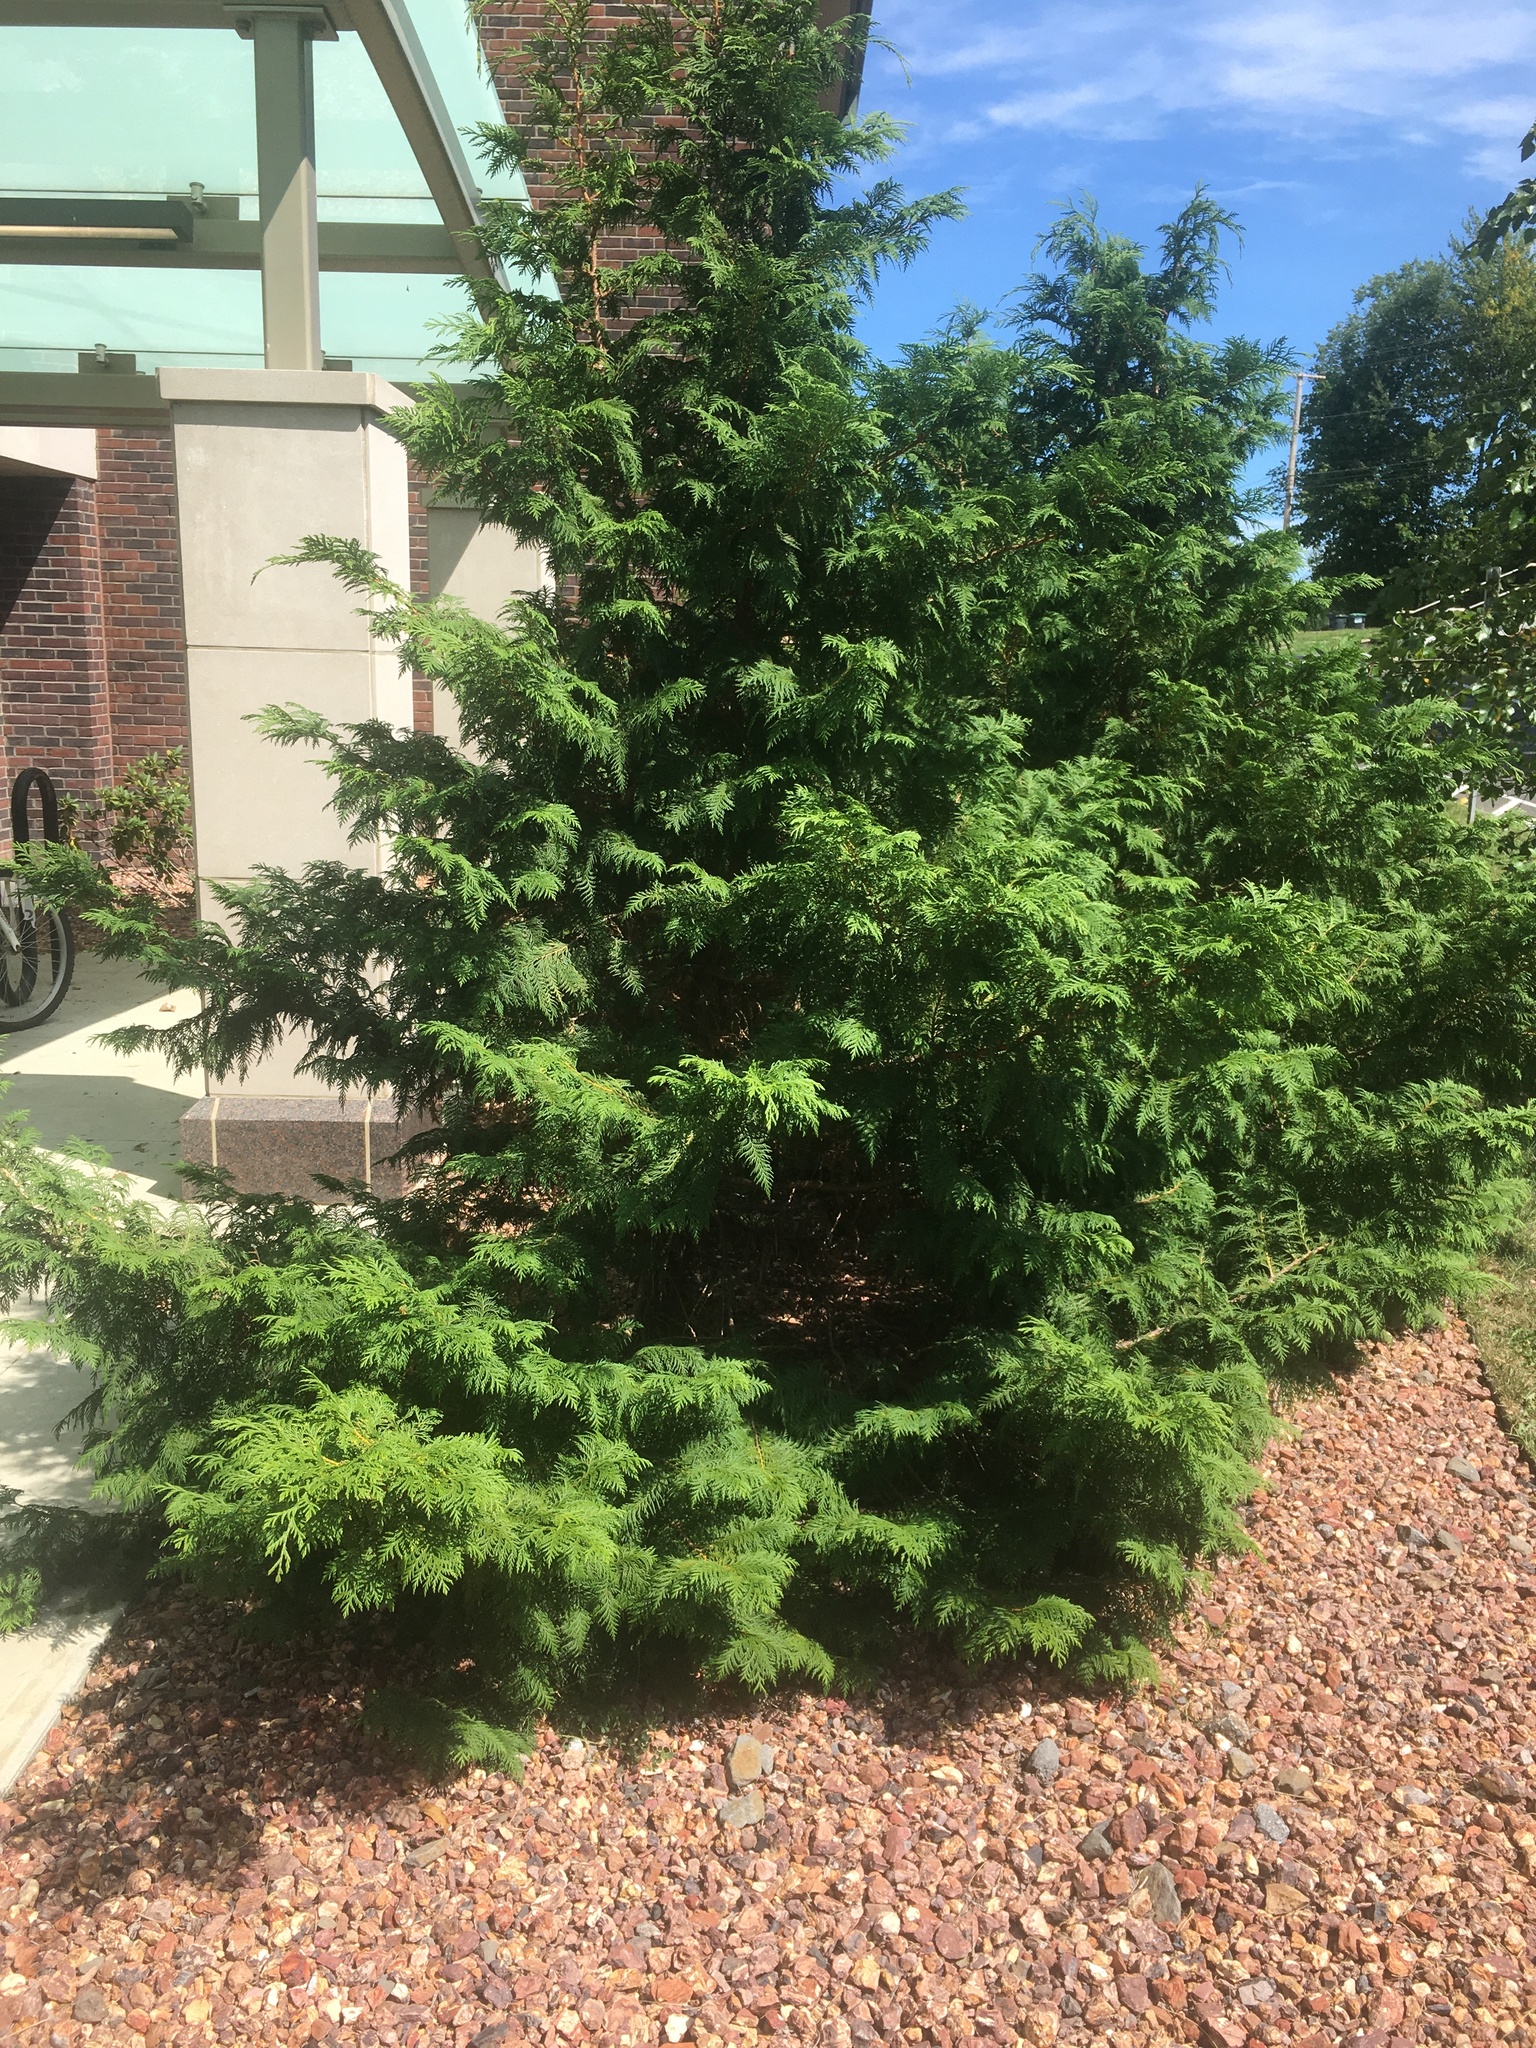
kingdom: Plantae
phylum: Tracheophyta
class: Pinopsida
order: Pinales
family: Cupressaceae
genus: Thuja
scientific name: Thuja occidentalis
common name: Northern white-cedar
